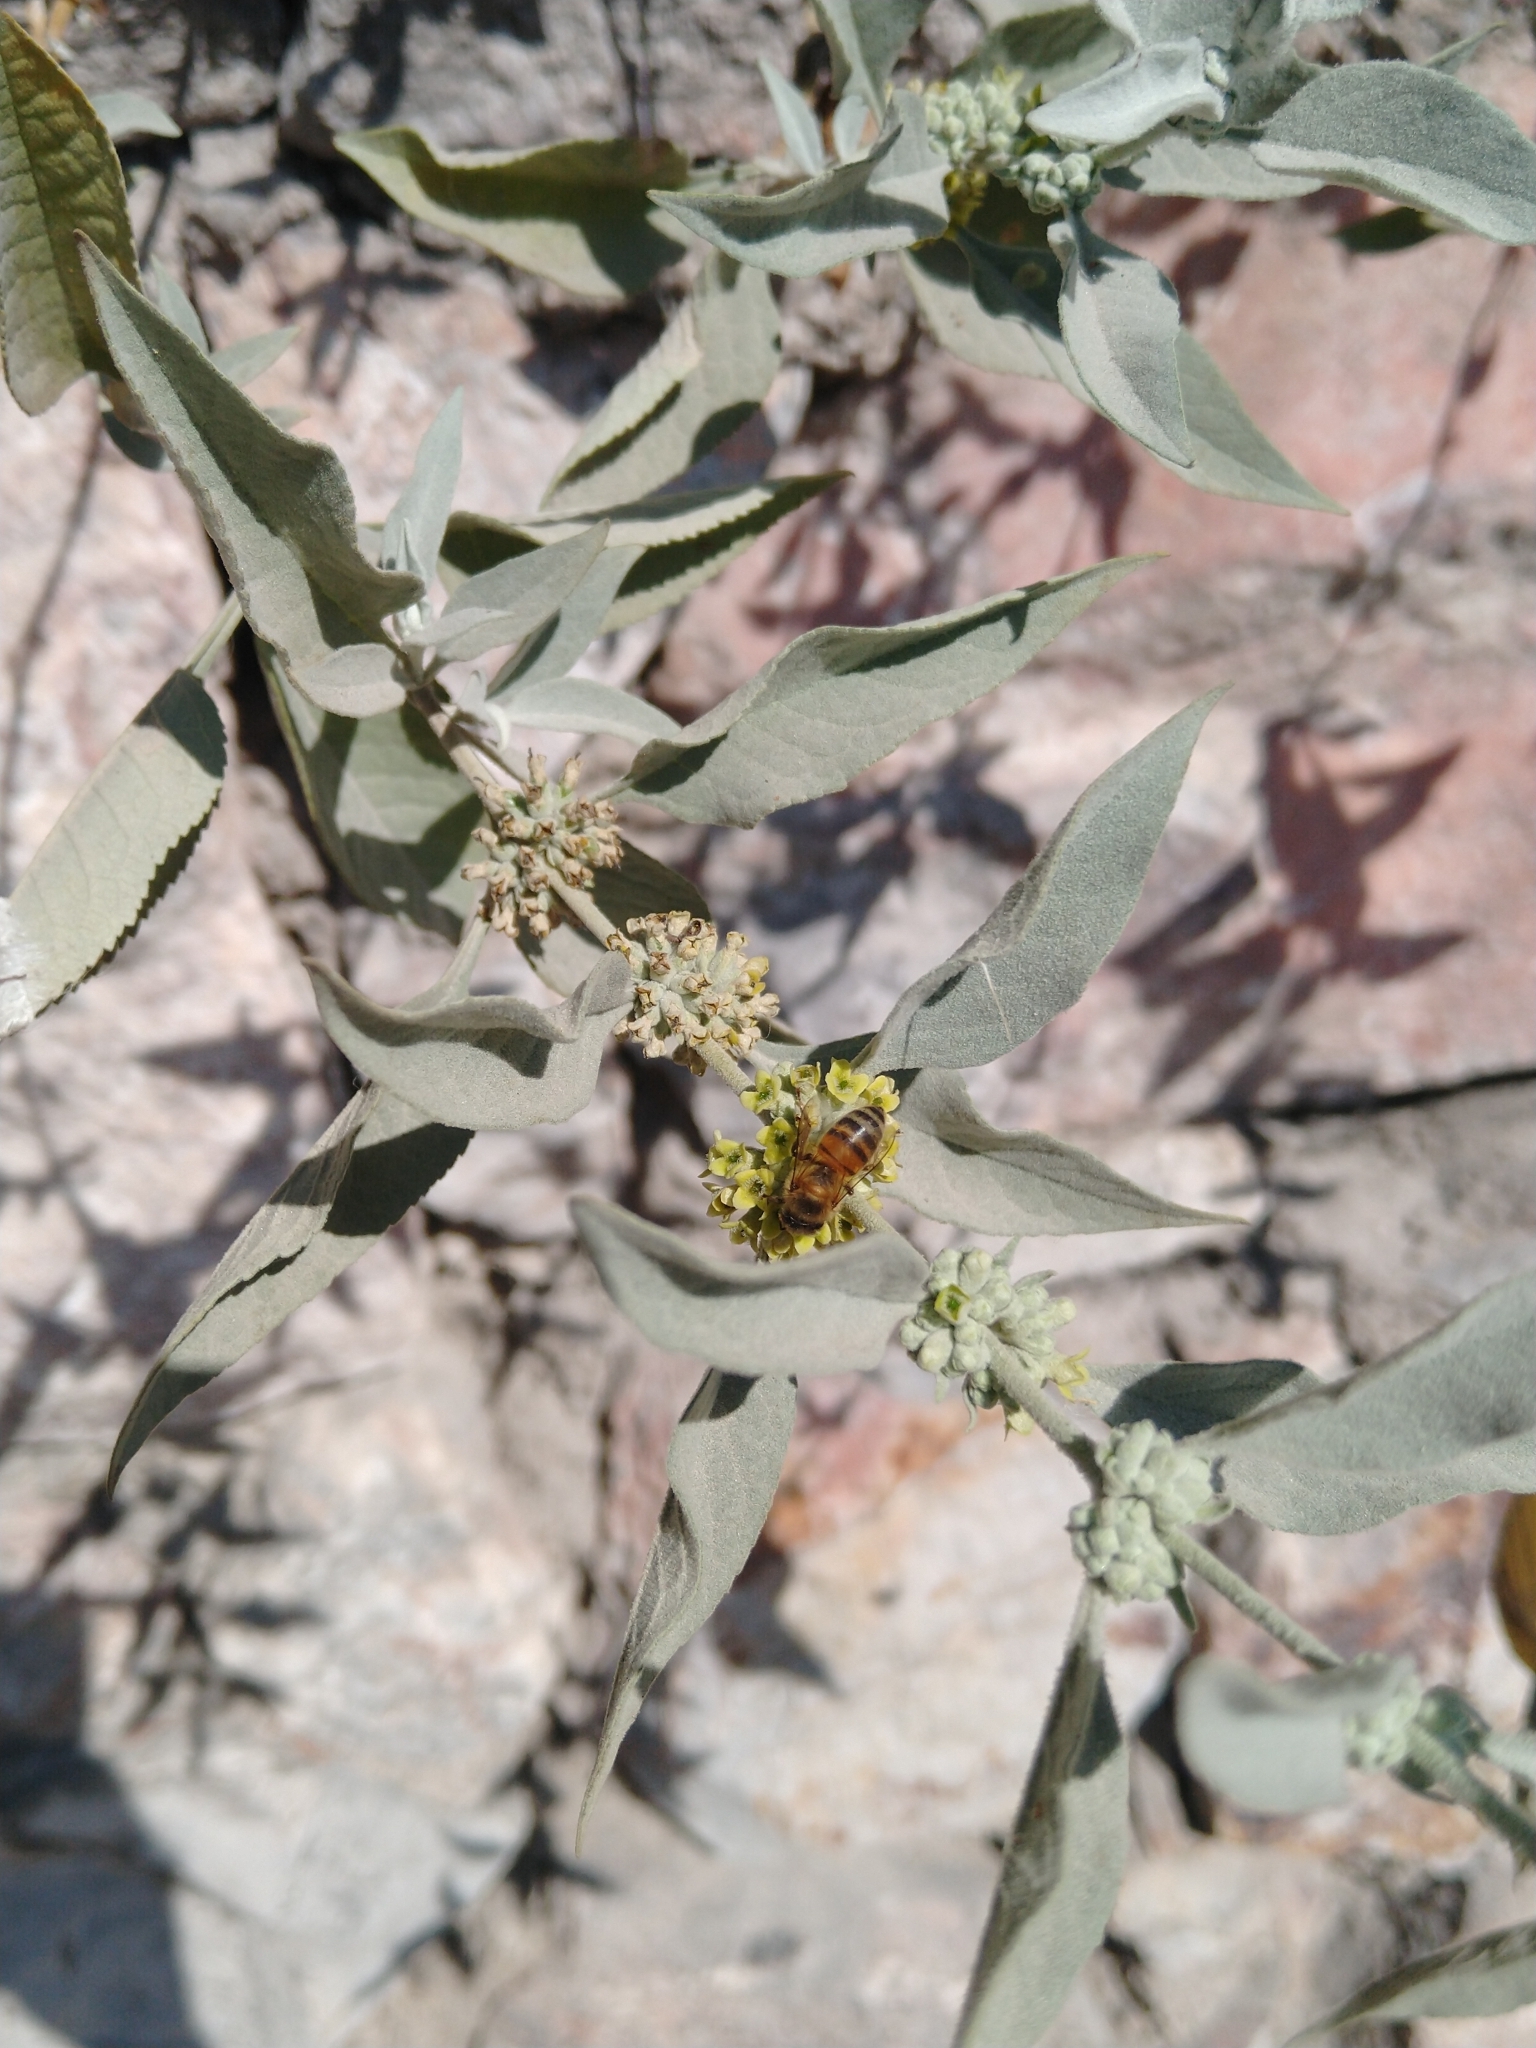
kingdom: Plantae
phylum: Tracheophyta
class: Magnoliopsida
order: Lamiales
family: Scrophulariaceae
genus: Buddleja
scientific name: Buddleja sessiliflora
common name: Rio grande butterfly-bush
